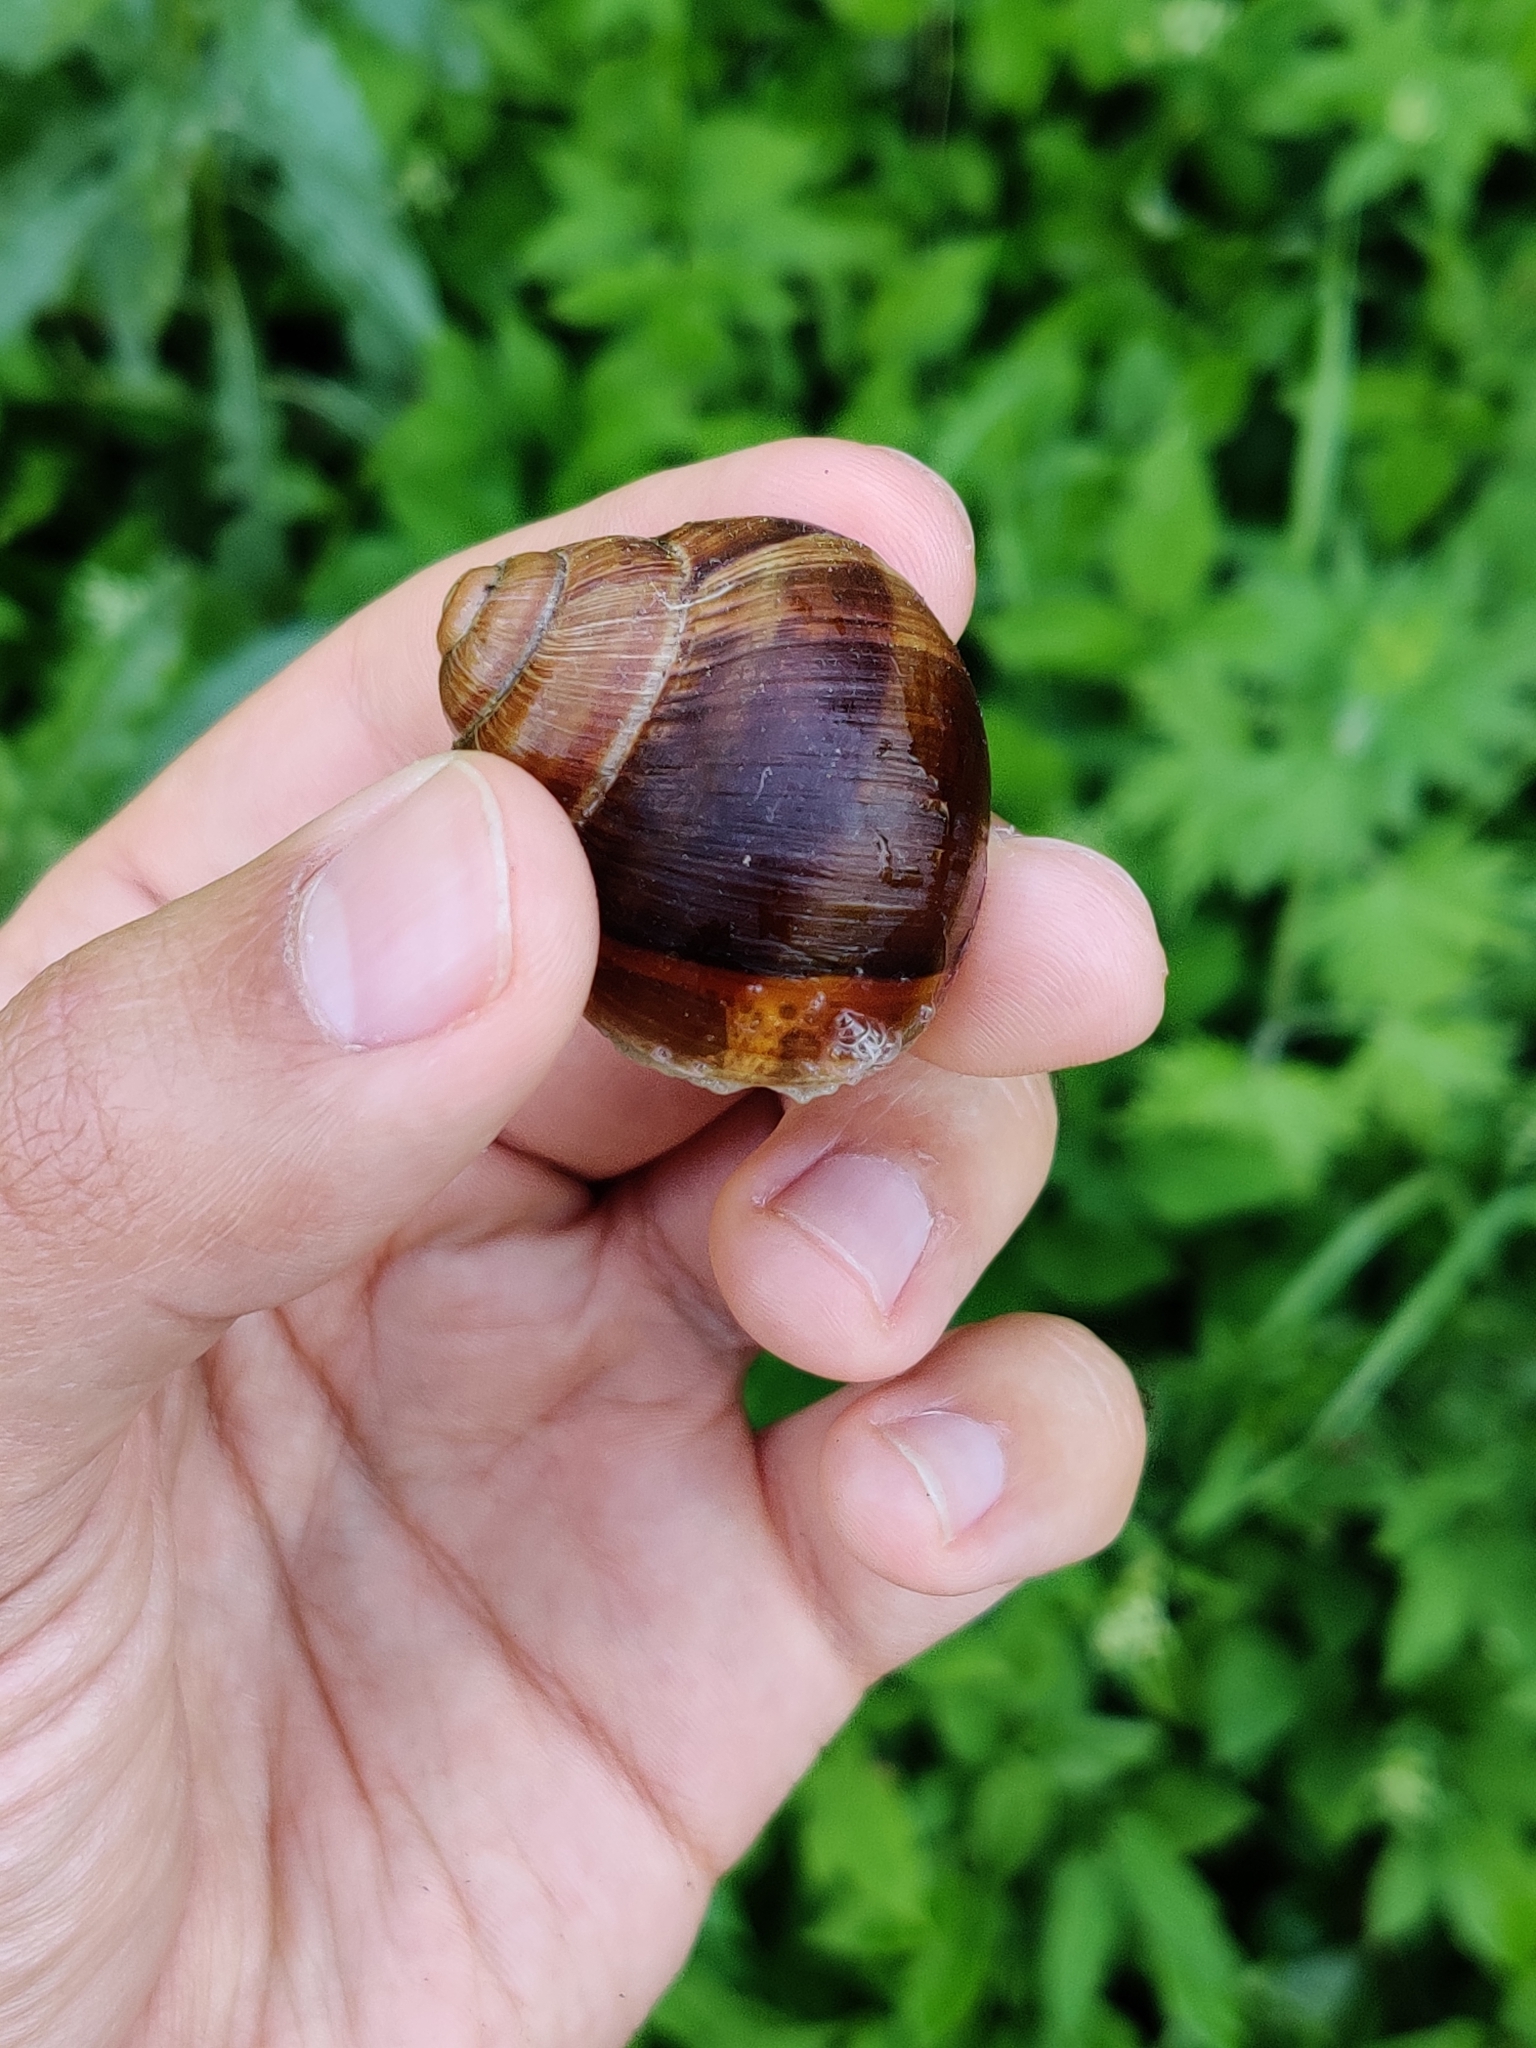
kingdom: Animalia
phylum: Mollusca
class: Gastropoda
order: Stylommatophora
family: Helicidae
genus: Helix
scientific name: Helix pomatia
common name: Roman snail
